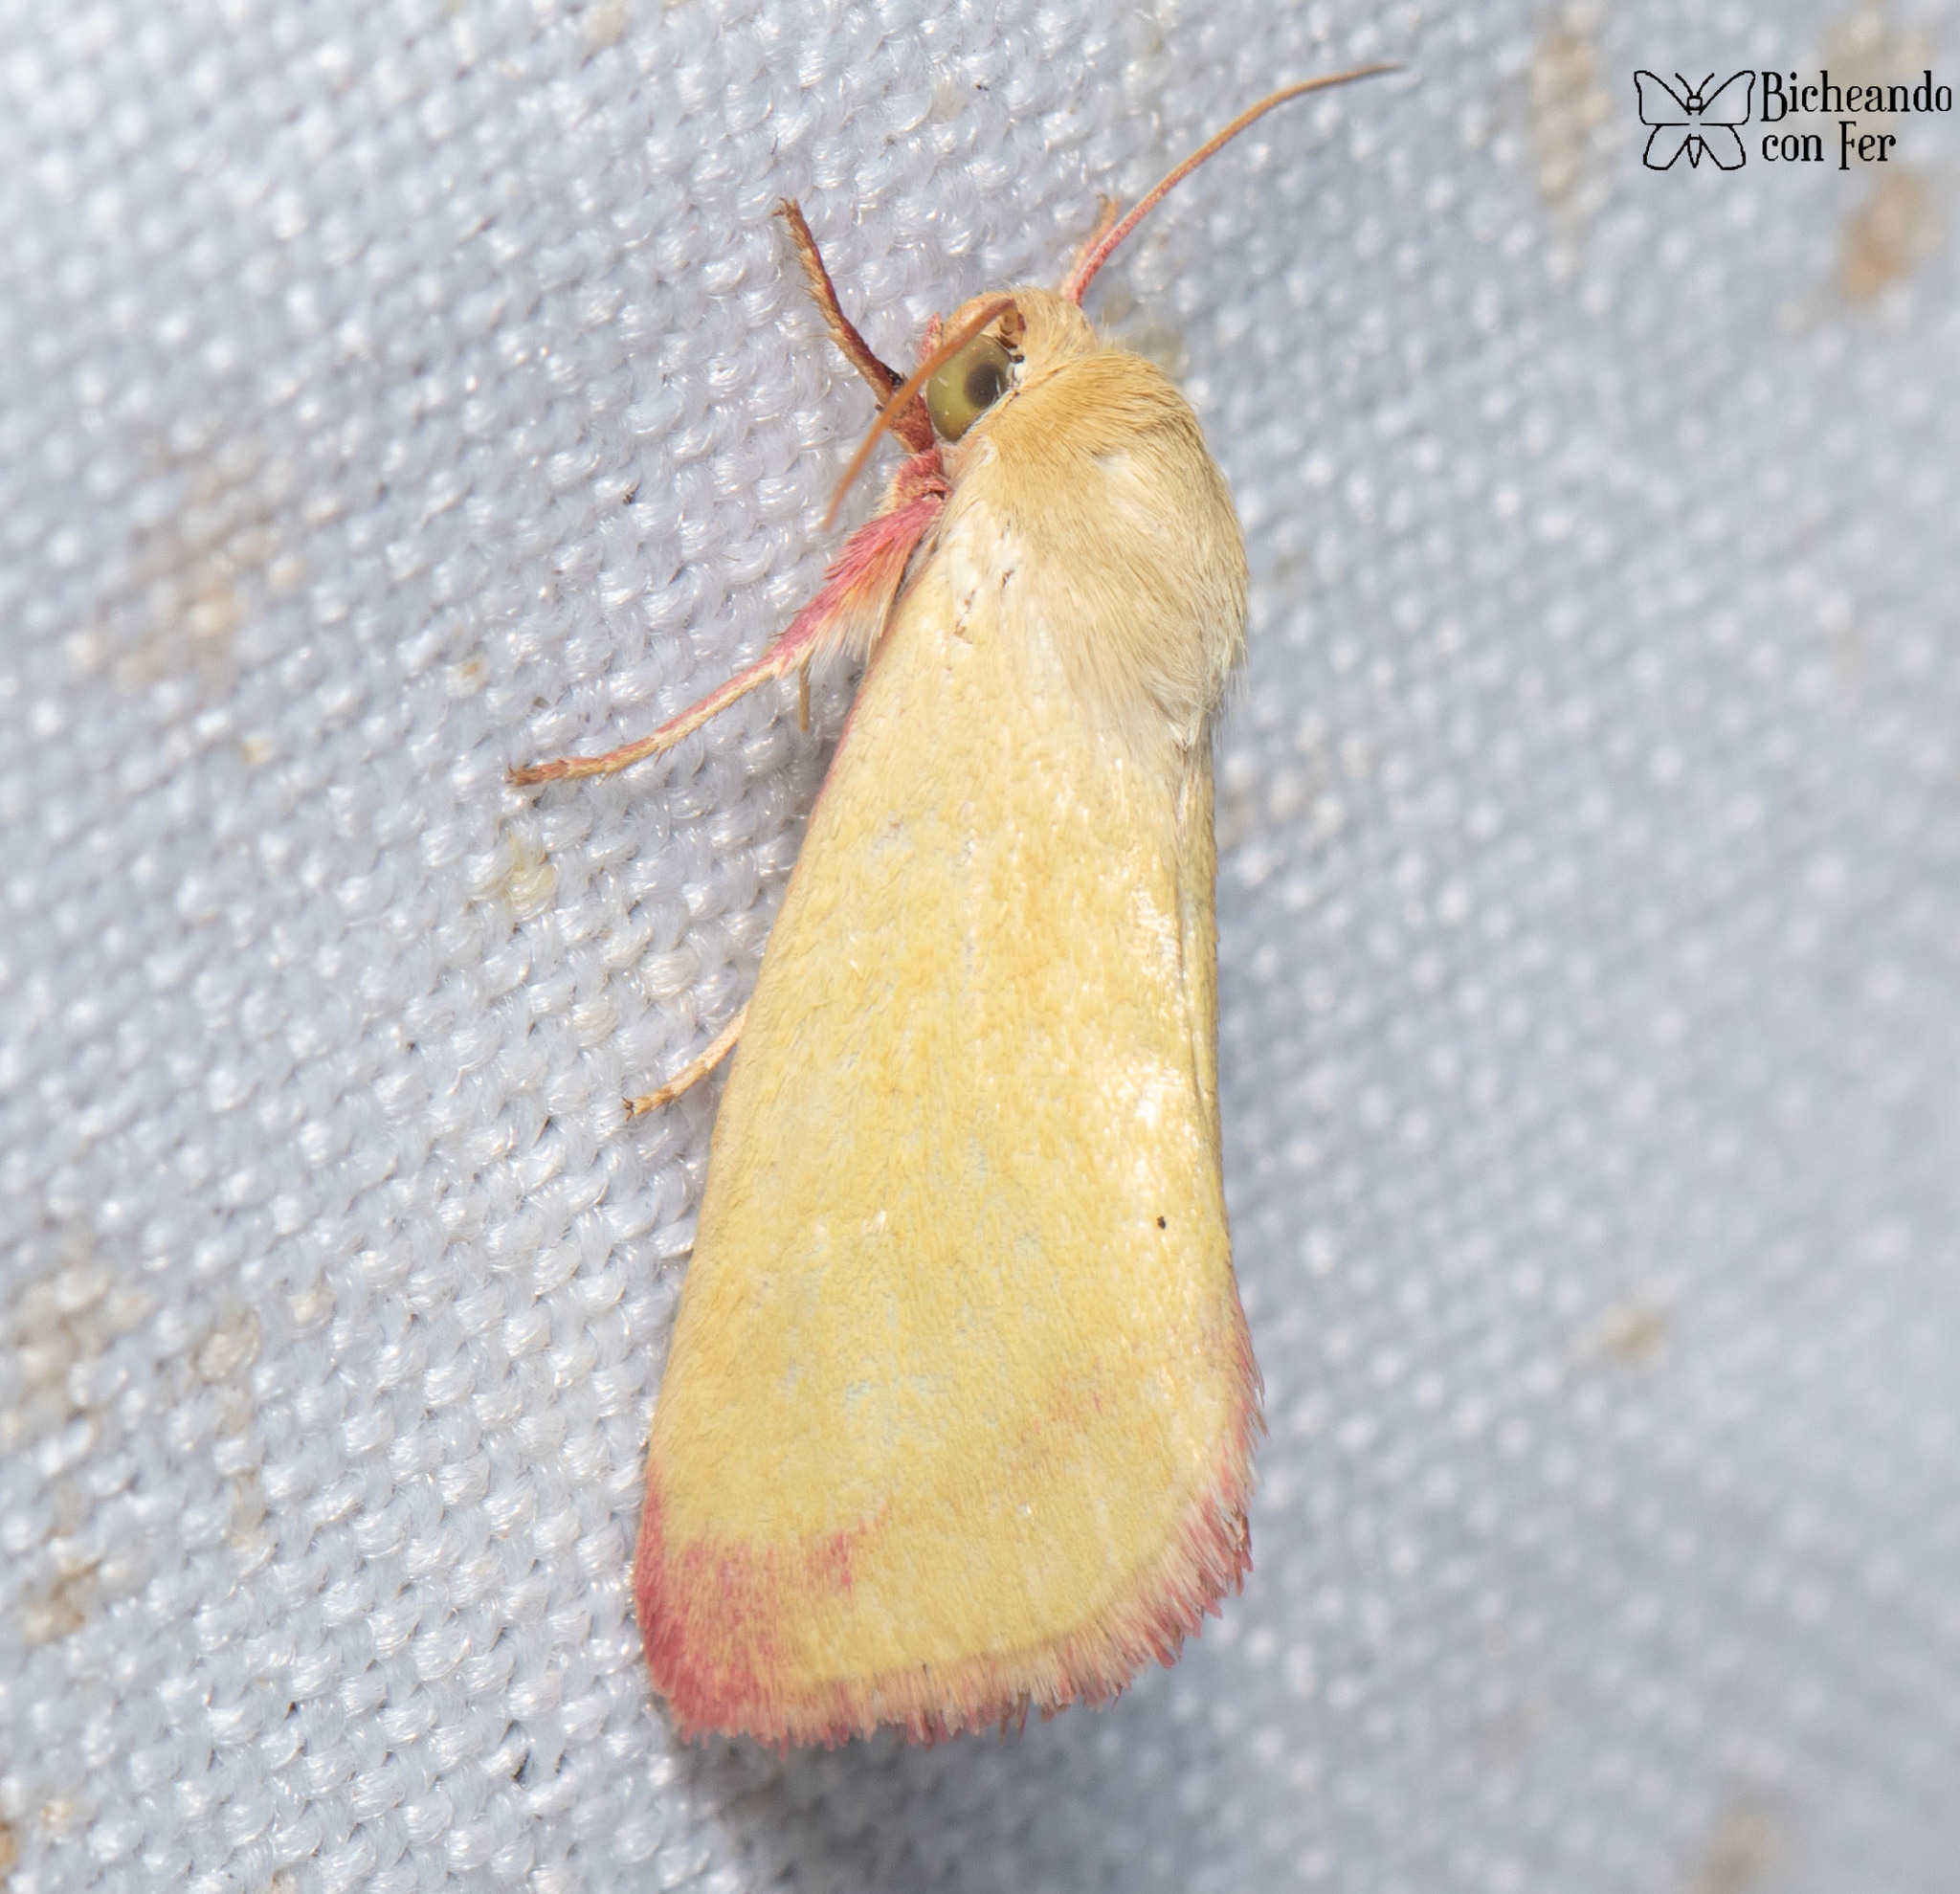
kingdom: Animalia
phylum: Arthropoda
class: Insecta
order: Lepidoptera
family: Noctuidae
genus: Heliocheilus
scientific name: Heliocheilus toralis
